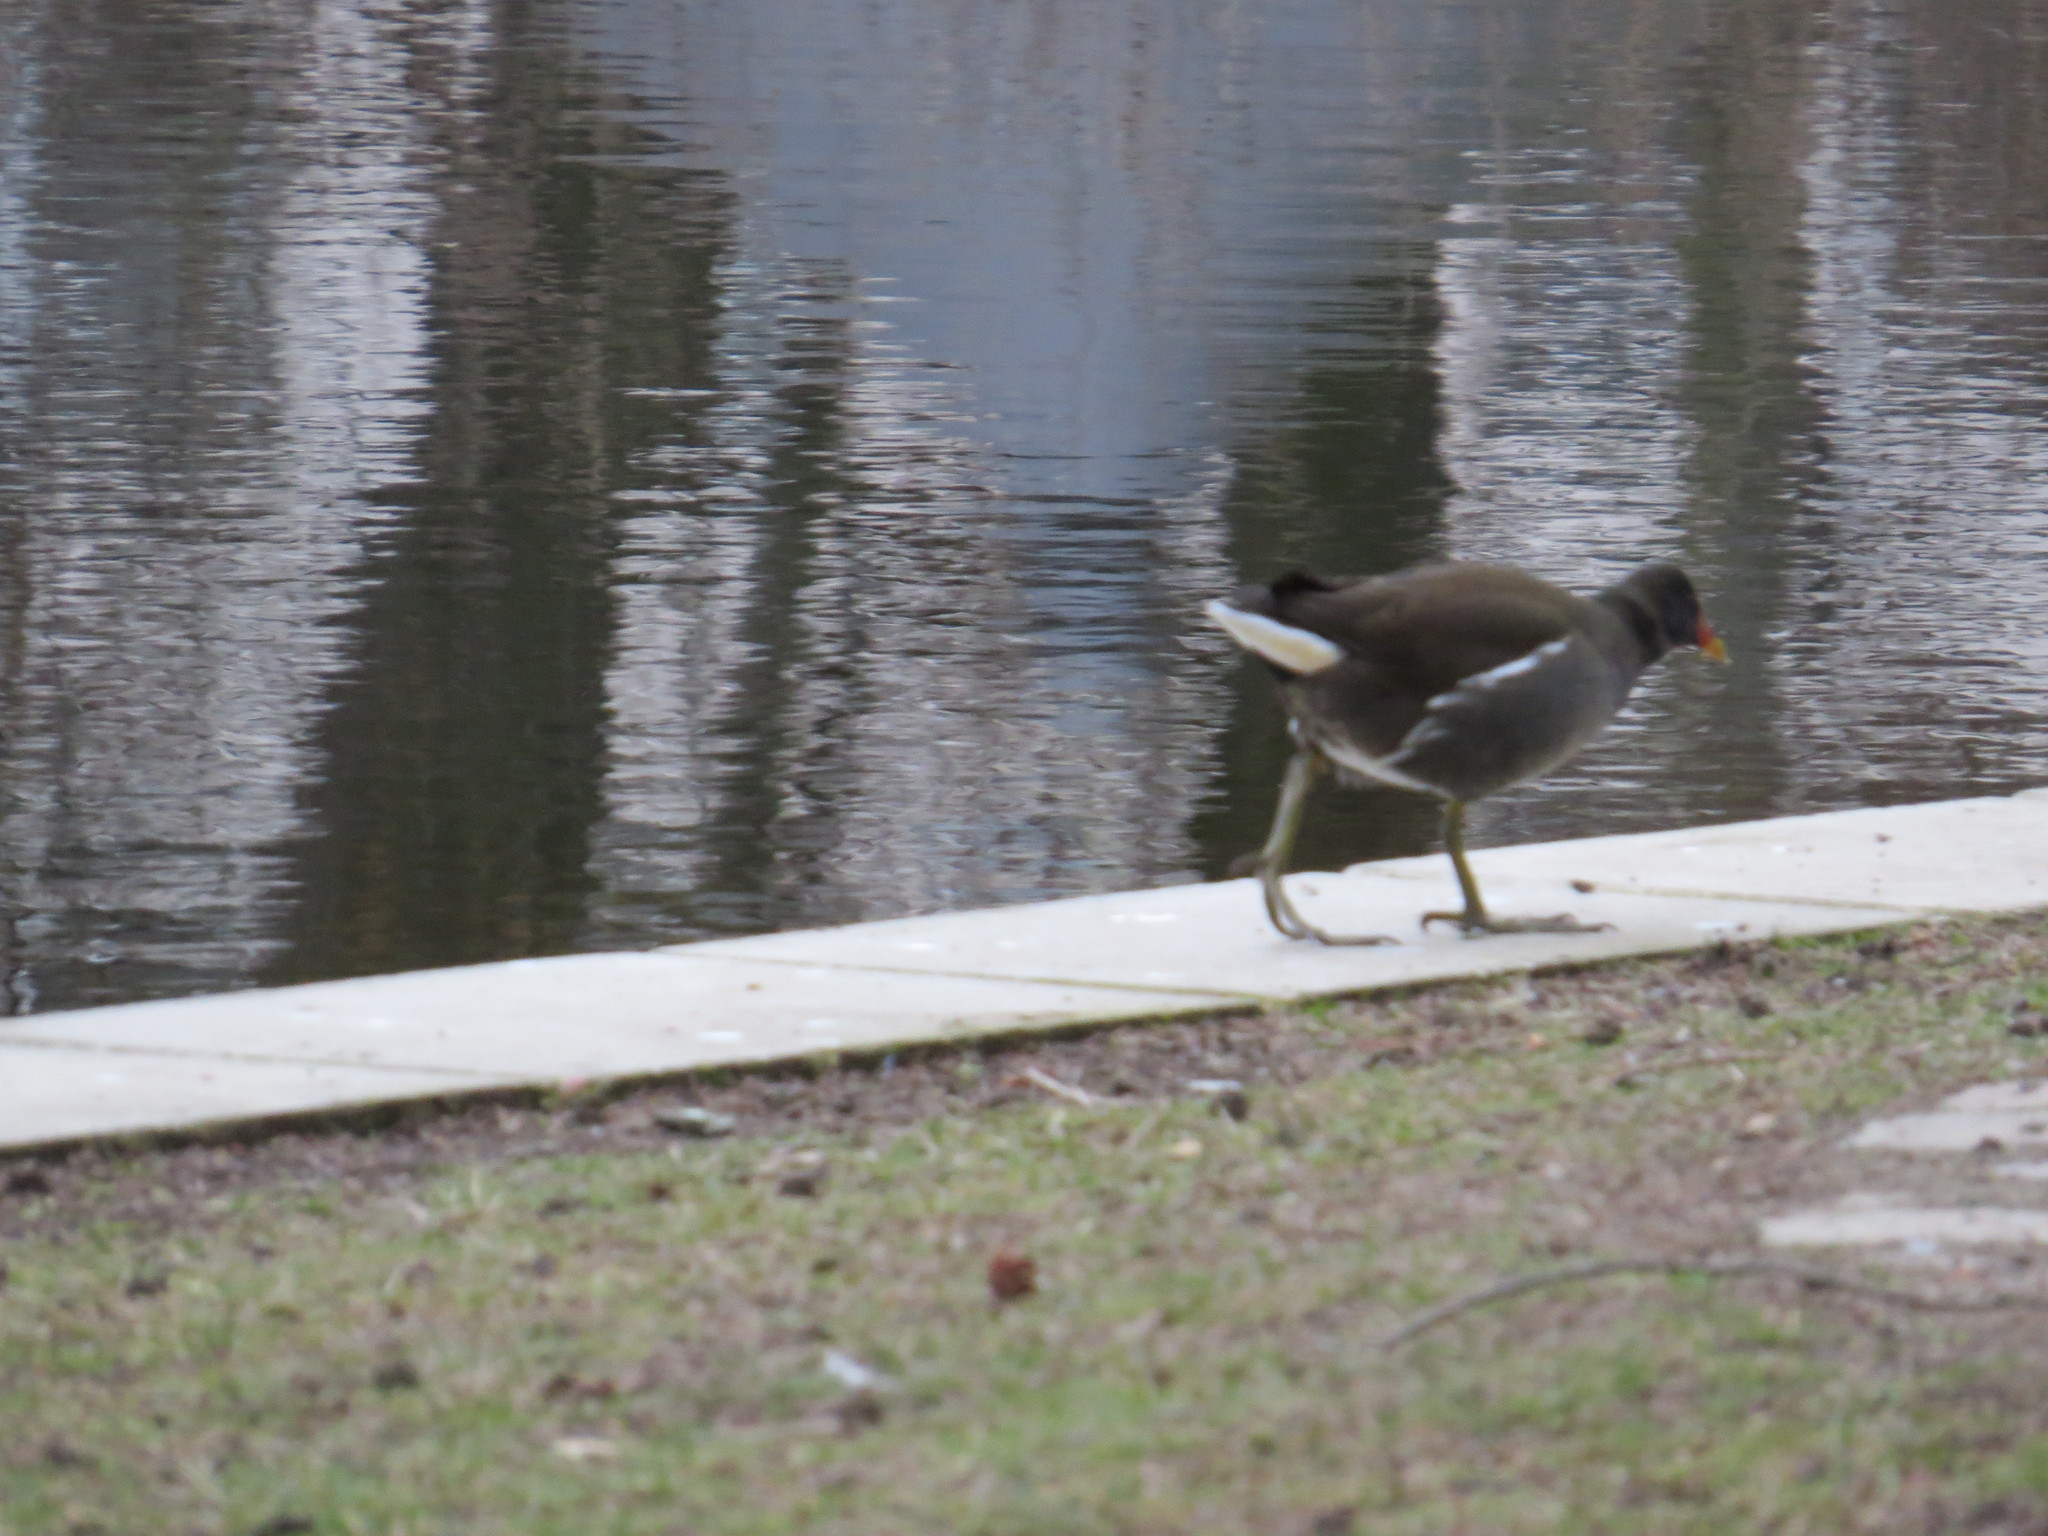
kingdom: Animalia
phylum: Chordata
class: Aves
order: Gruiformes
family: Rallidae
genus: Gallinula
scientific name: Gallinula chloropus
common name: Common moorhen
